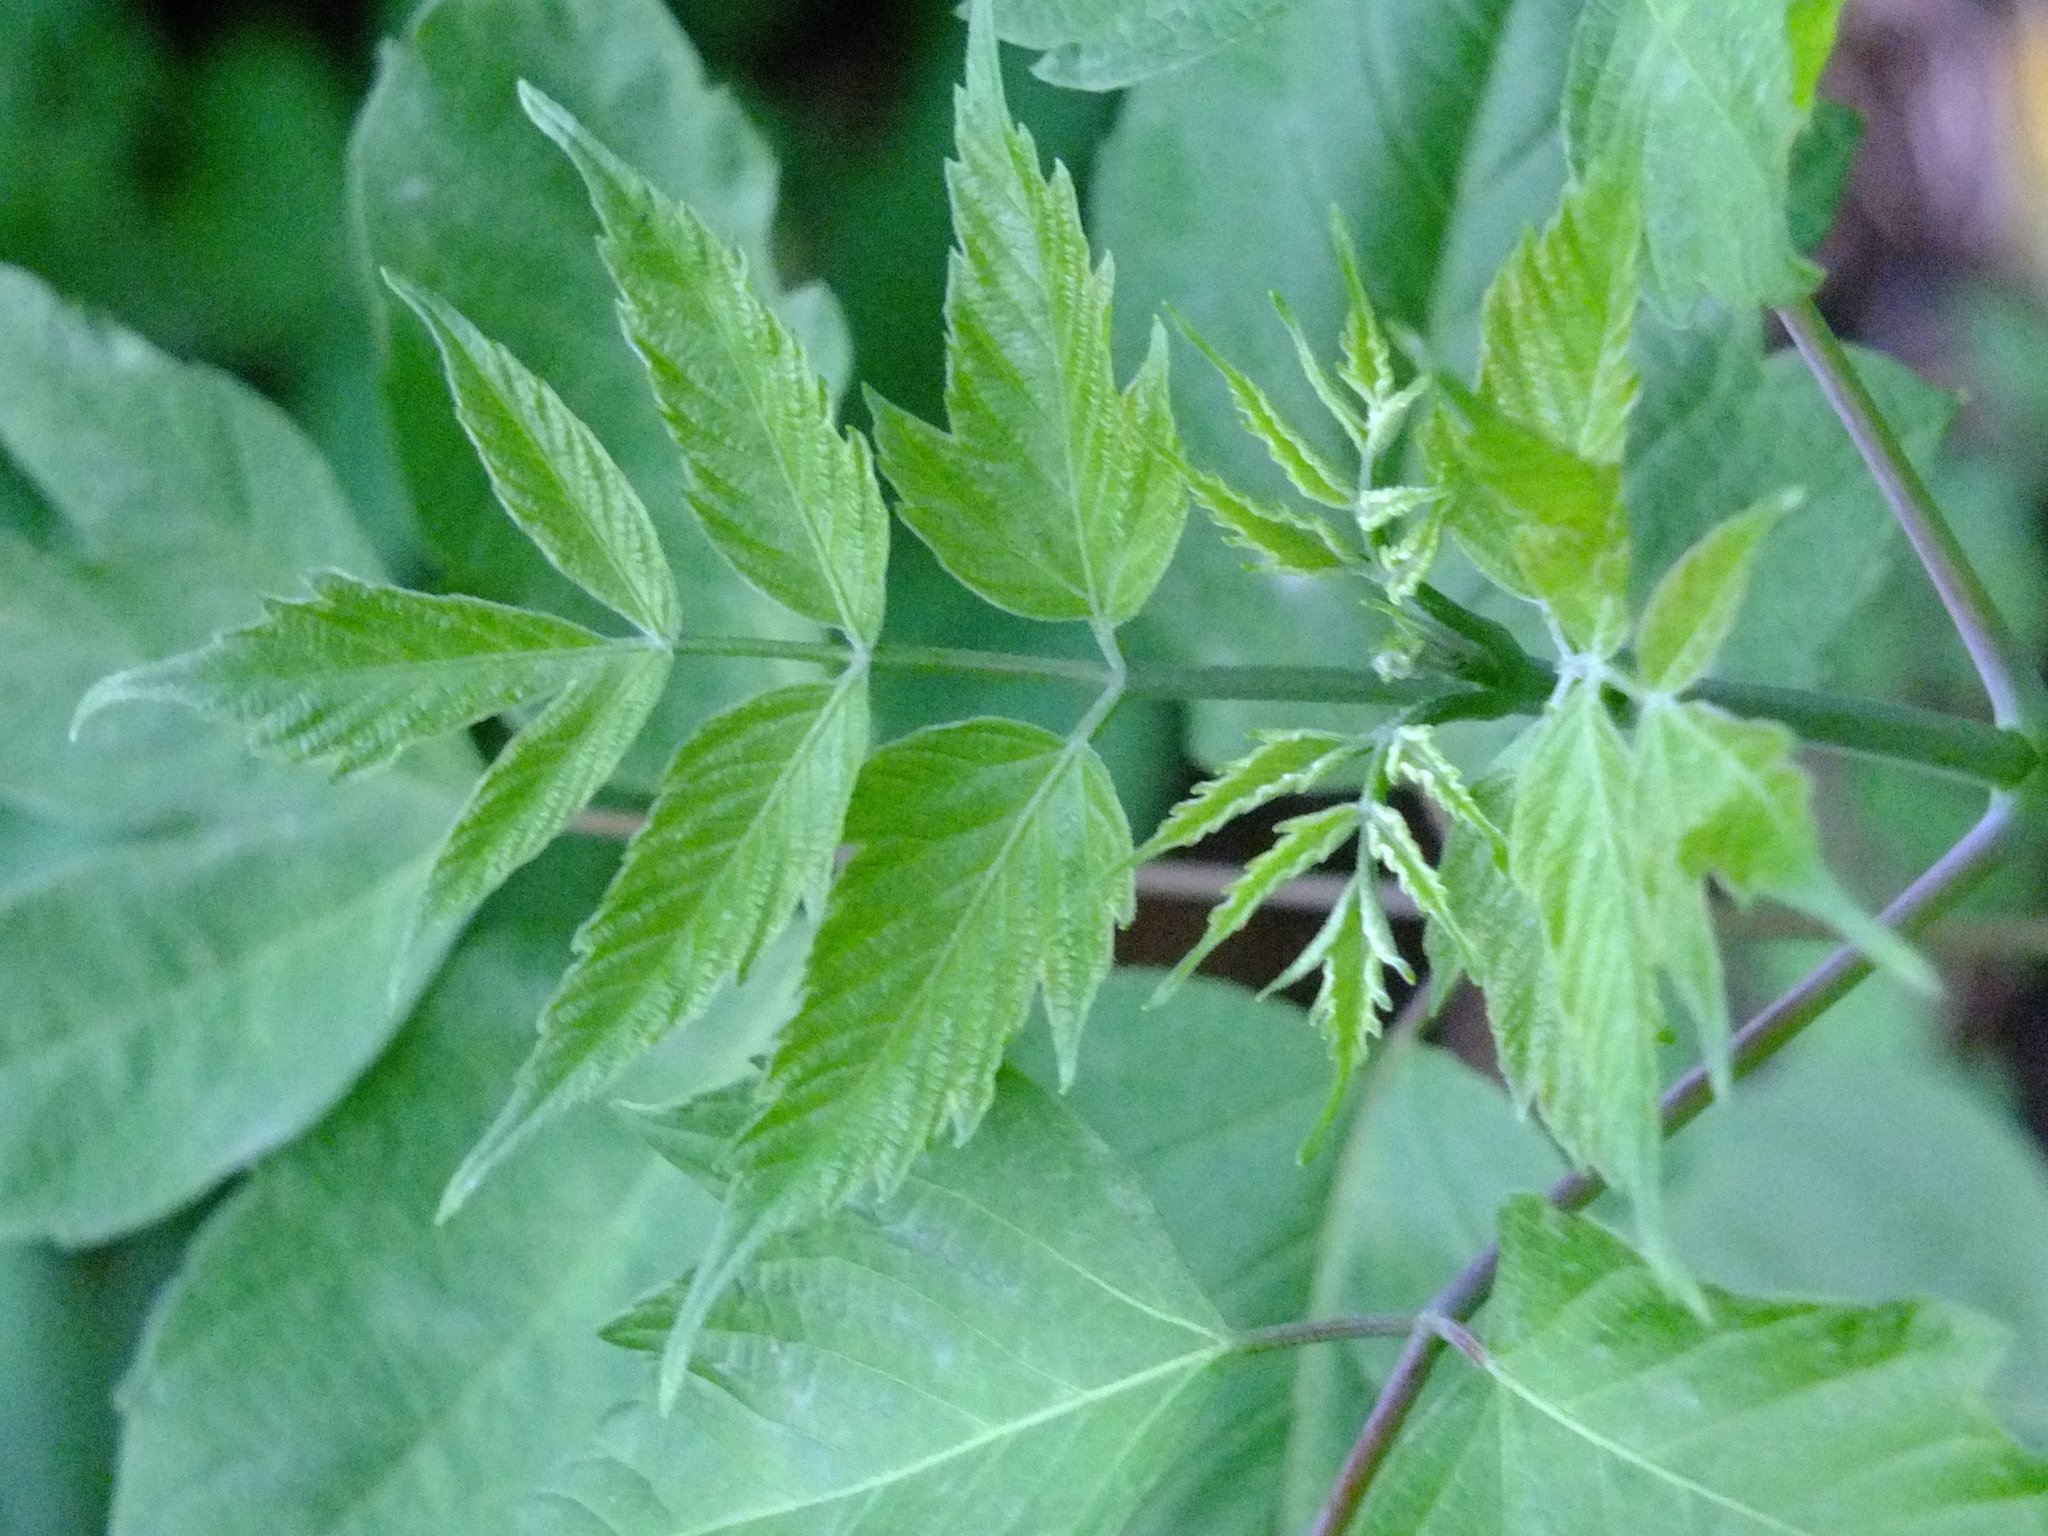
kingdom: Plantae
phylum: Tracheophyta
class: Magnoliopsida
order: Sapindales
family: Sapindaceae
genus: Acer
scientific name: Acer negundo
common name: Ashleaf maple
